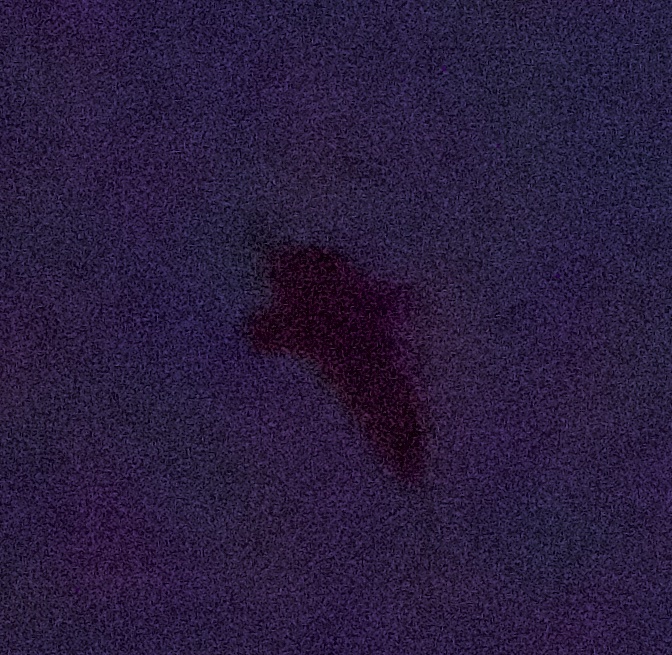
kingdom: Animalia
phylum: Chordata
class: Aves
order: Charadriiformes
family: Scolopacidae
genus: Scolopax
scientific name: Scolopax rusticola
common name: Eurasian woodcock
